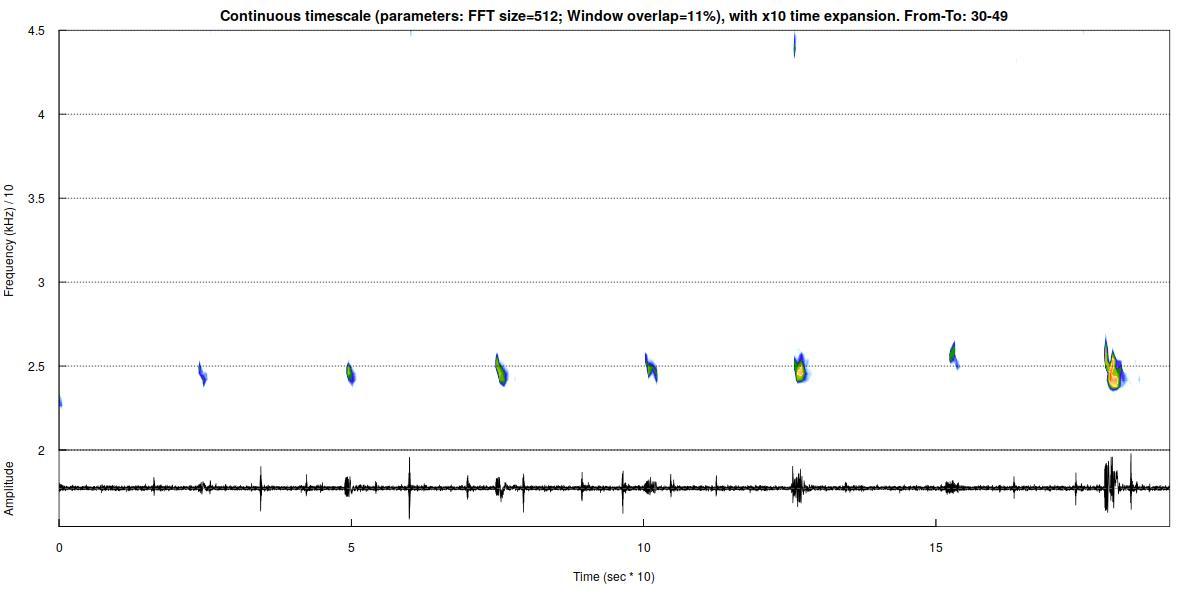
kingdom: Animalia
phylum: Chordata
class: Mammalia
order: Chiroptera
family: Vespertilionidae
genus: Nyctalus
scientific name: Nyctalus leisleri
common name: Lesser noctule
